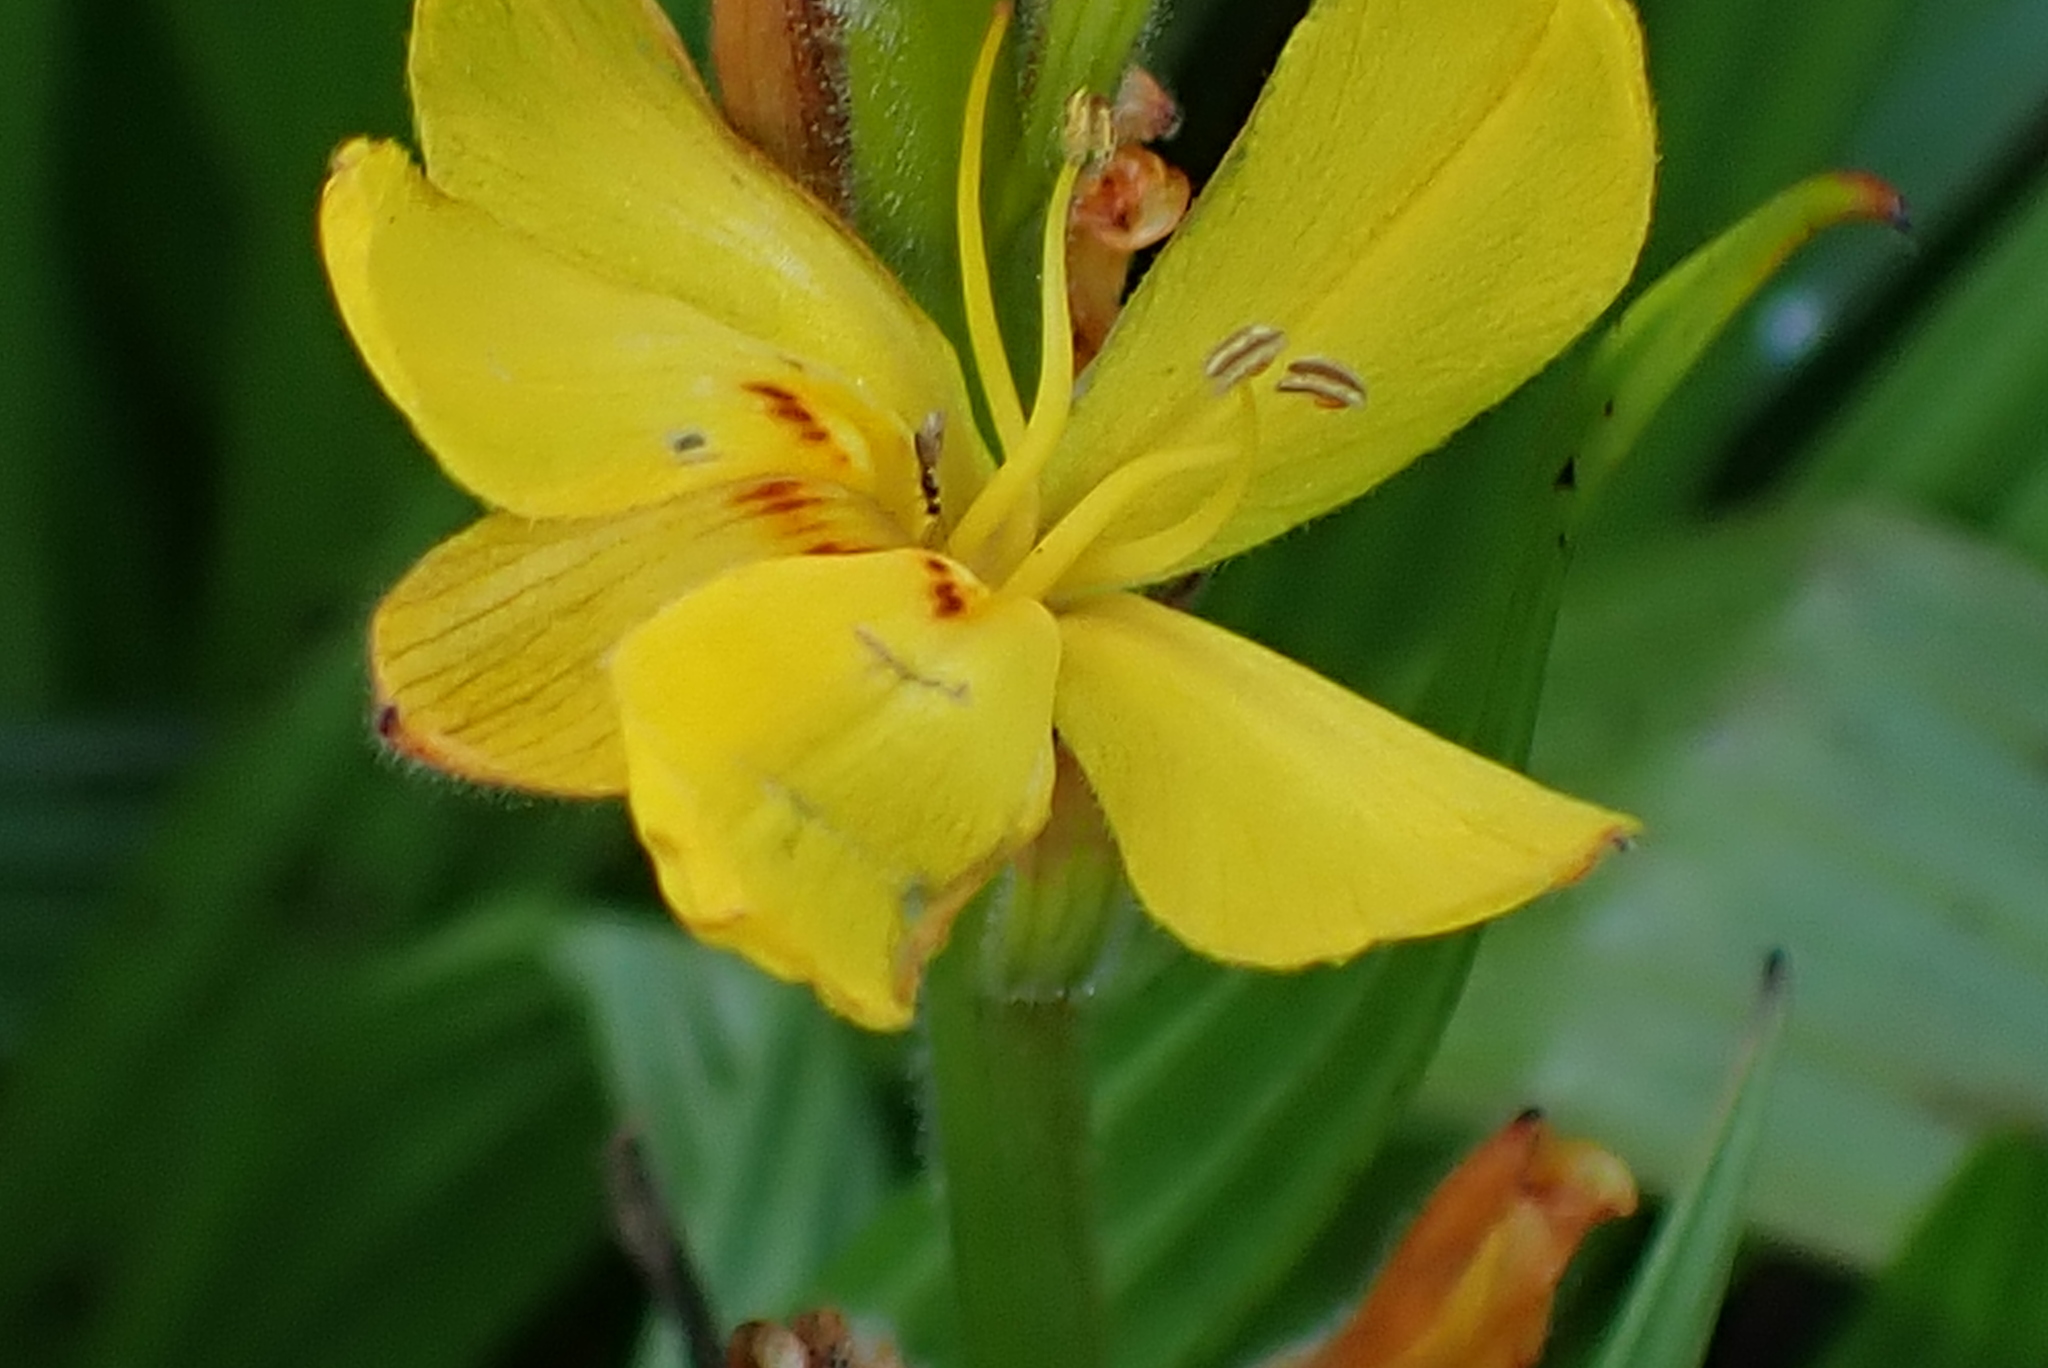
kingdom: Plantae
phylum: Tracheophyta
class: Liliopsida
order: Commelinales
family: Haemodoraceae
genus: Wachendorfia
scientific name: Wachendorfia thyrsiflora
